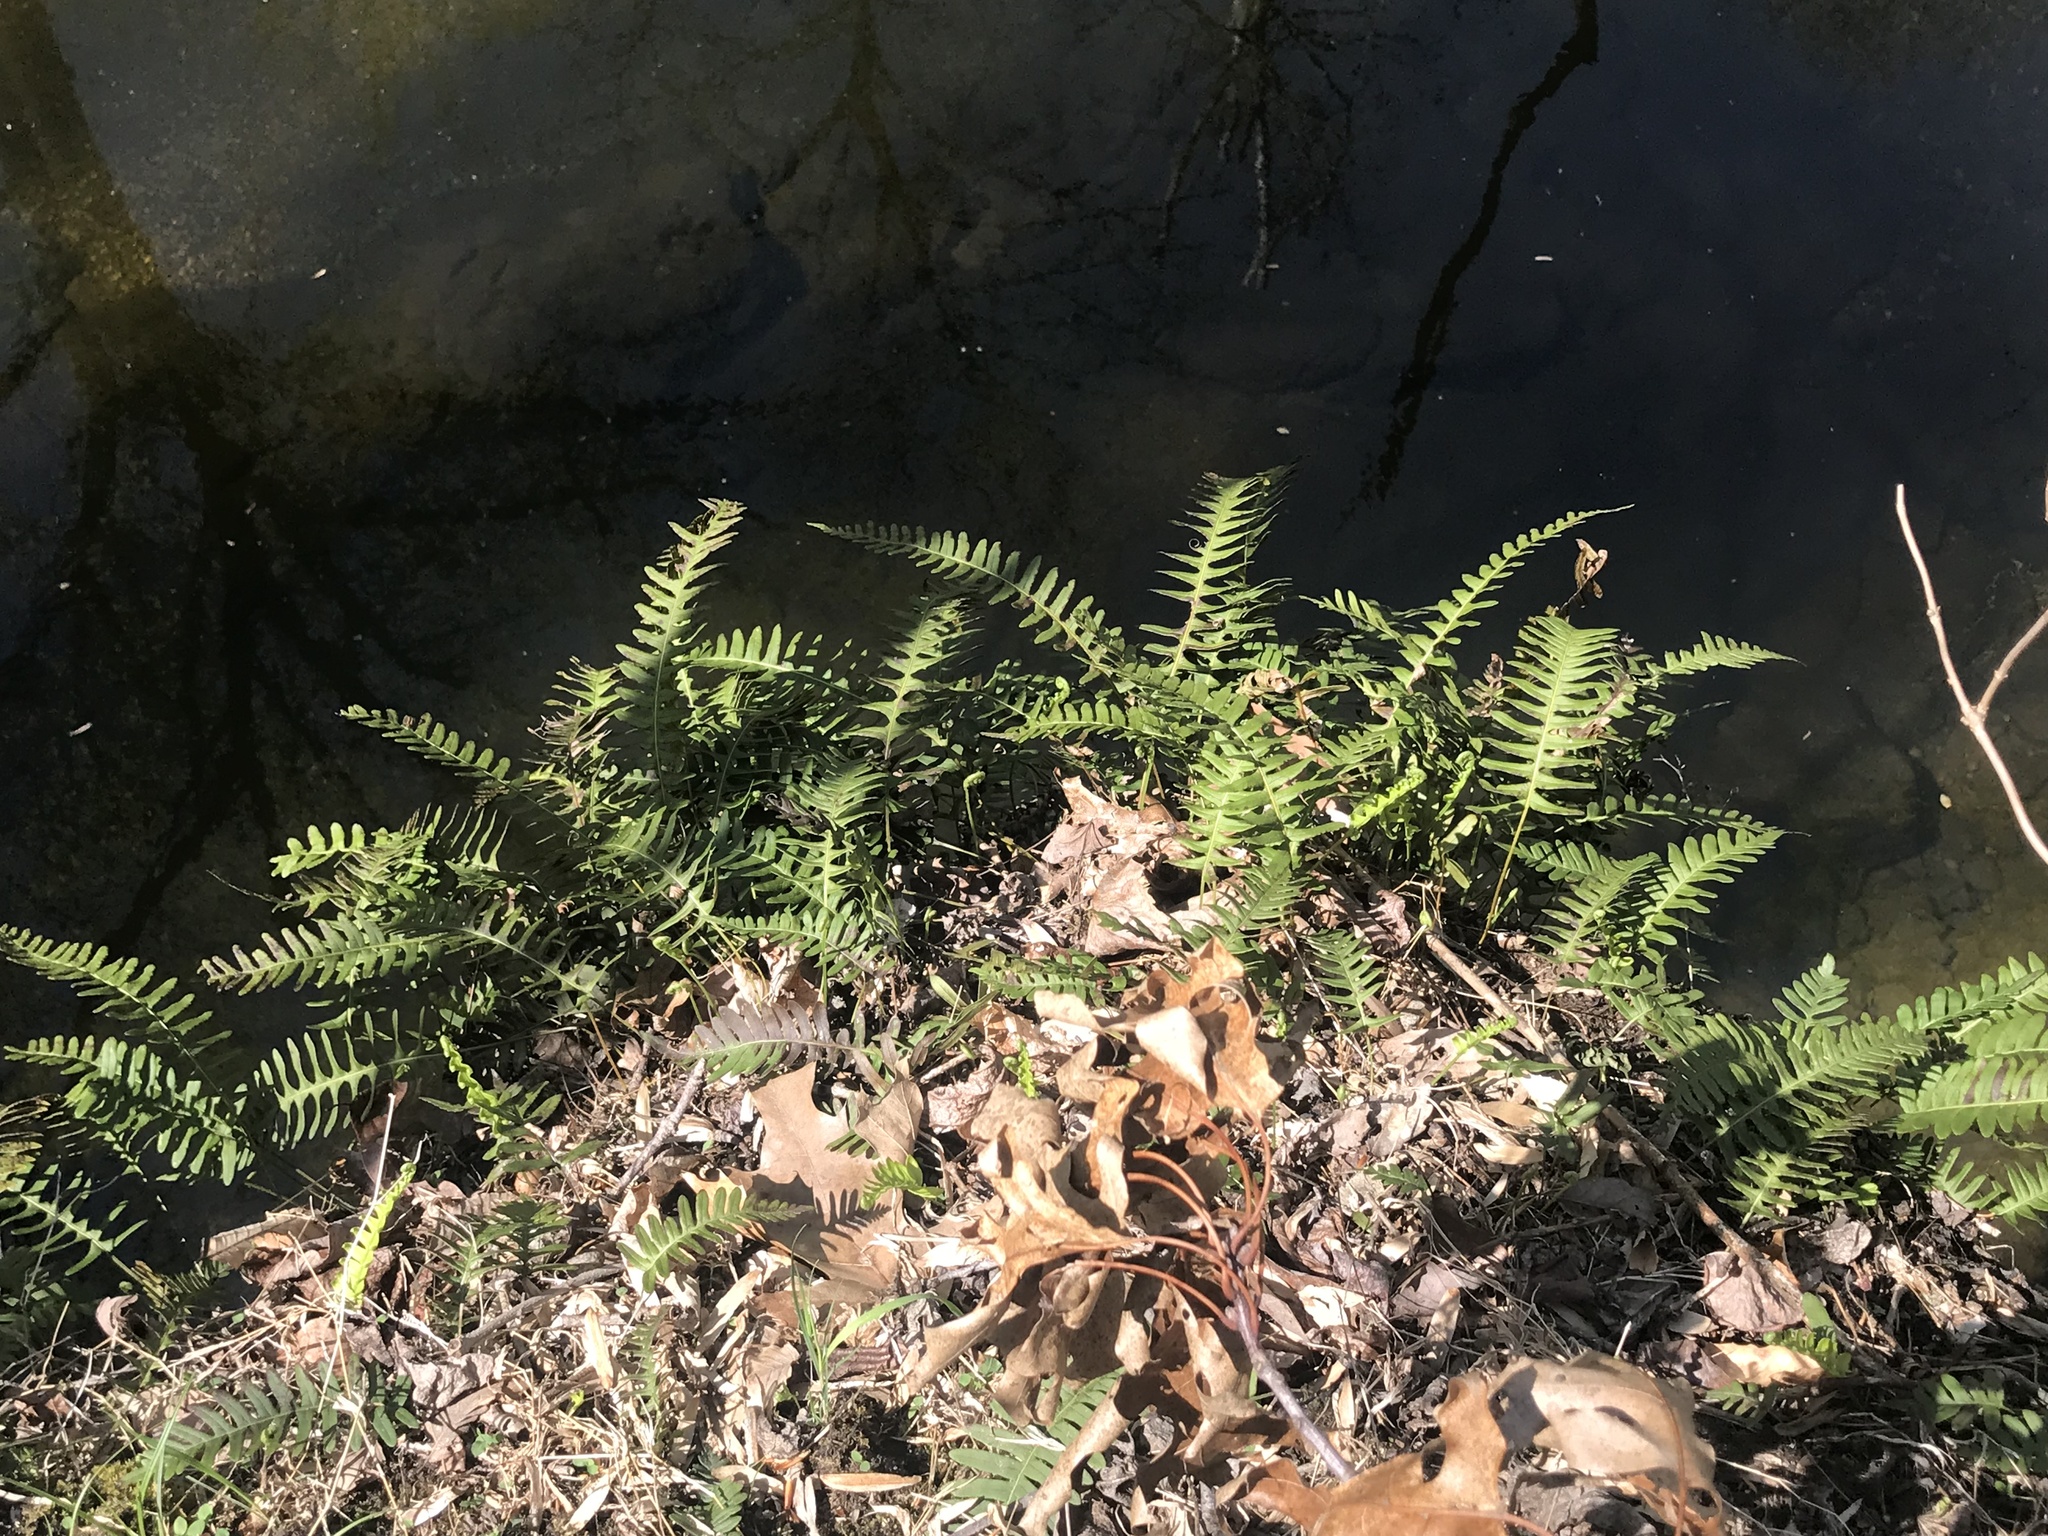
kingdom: Plantae
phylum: Tracheophyta
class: Polypodiopsida
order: Polypodiales
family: Polypodiaceae
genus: Polypodium
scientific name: Polypodium virginianum
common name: American wall fern
